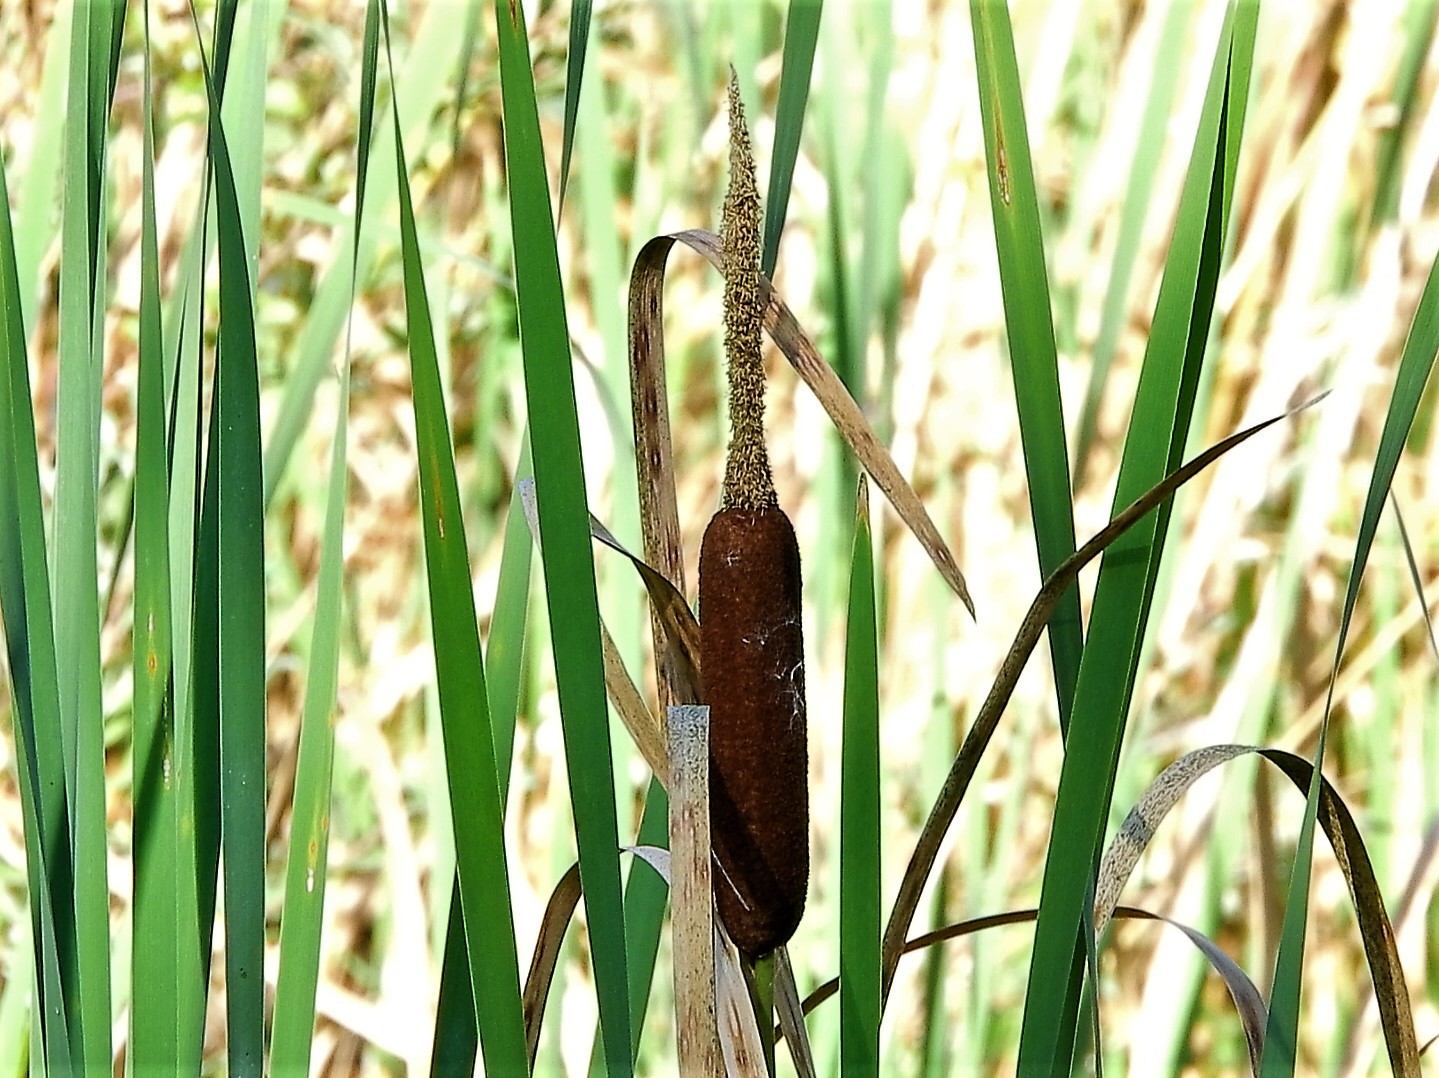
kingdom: Plantae
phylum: Tracheophyta
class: Liliopsida
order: Poales
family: Typhaceae
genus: Typha
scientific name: Typha latifolia
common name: Broadleaf cattail
